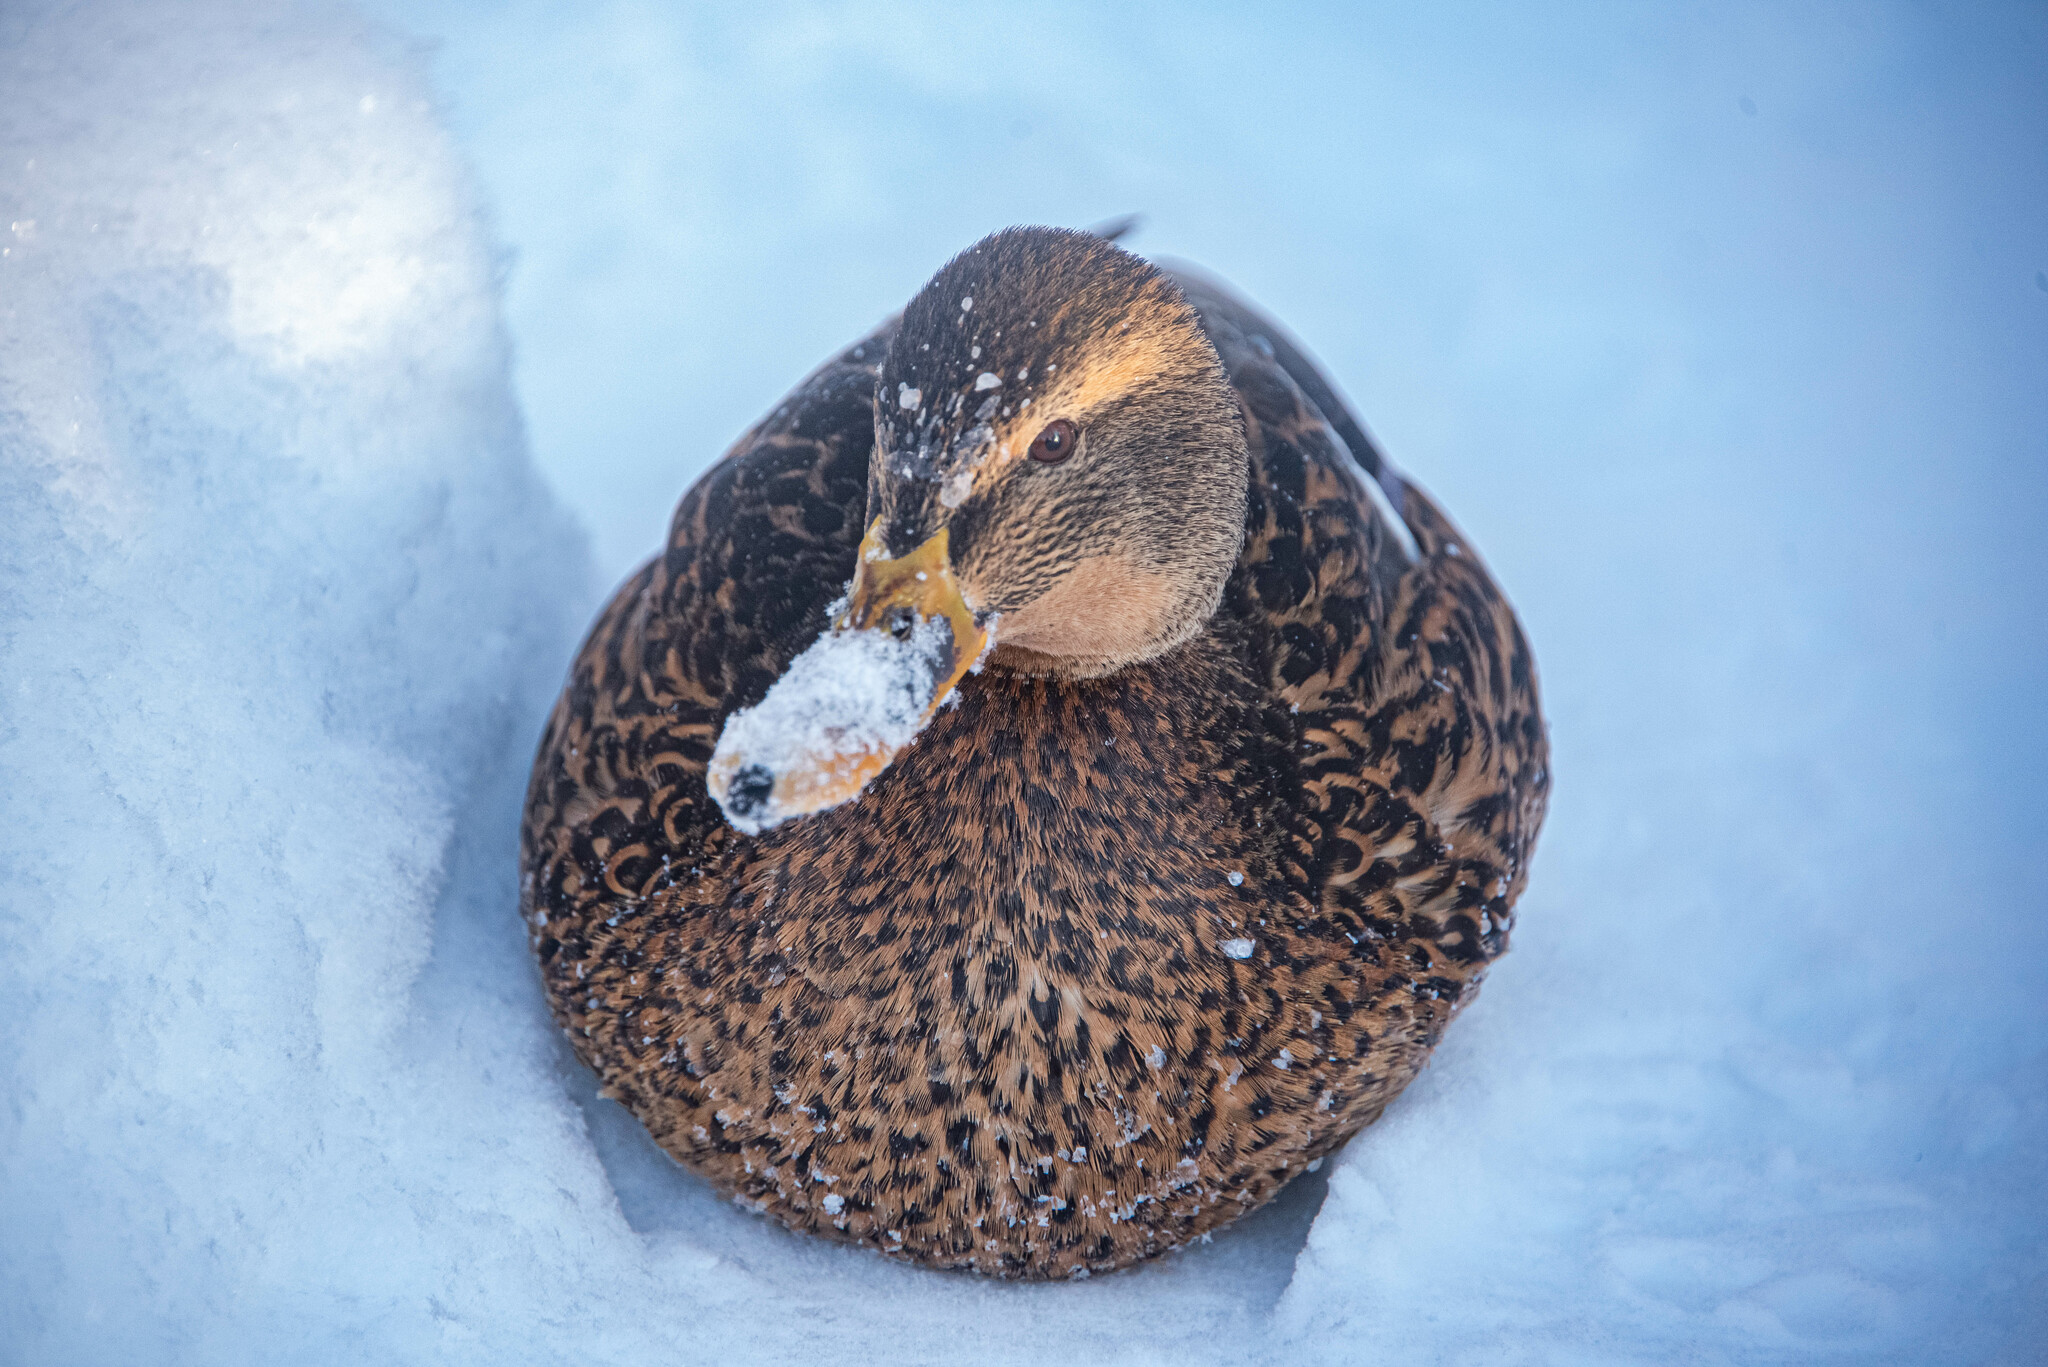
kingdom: Animalia
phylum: Chordata
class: Aves
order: Anseriformes
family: Anatidae
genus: Anas
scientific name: Anas platyrhynchos
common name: Mallard
